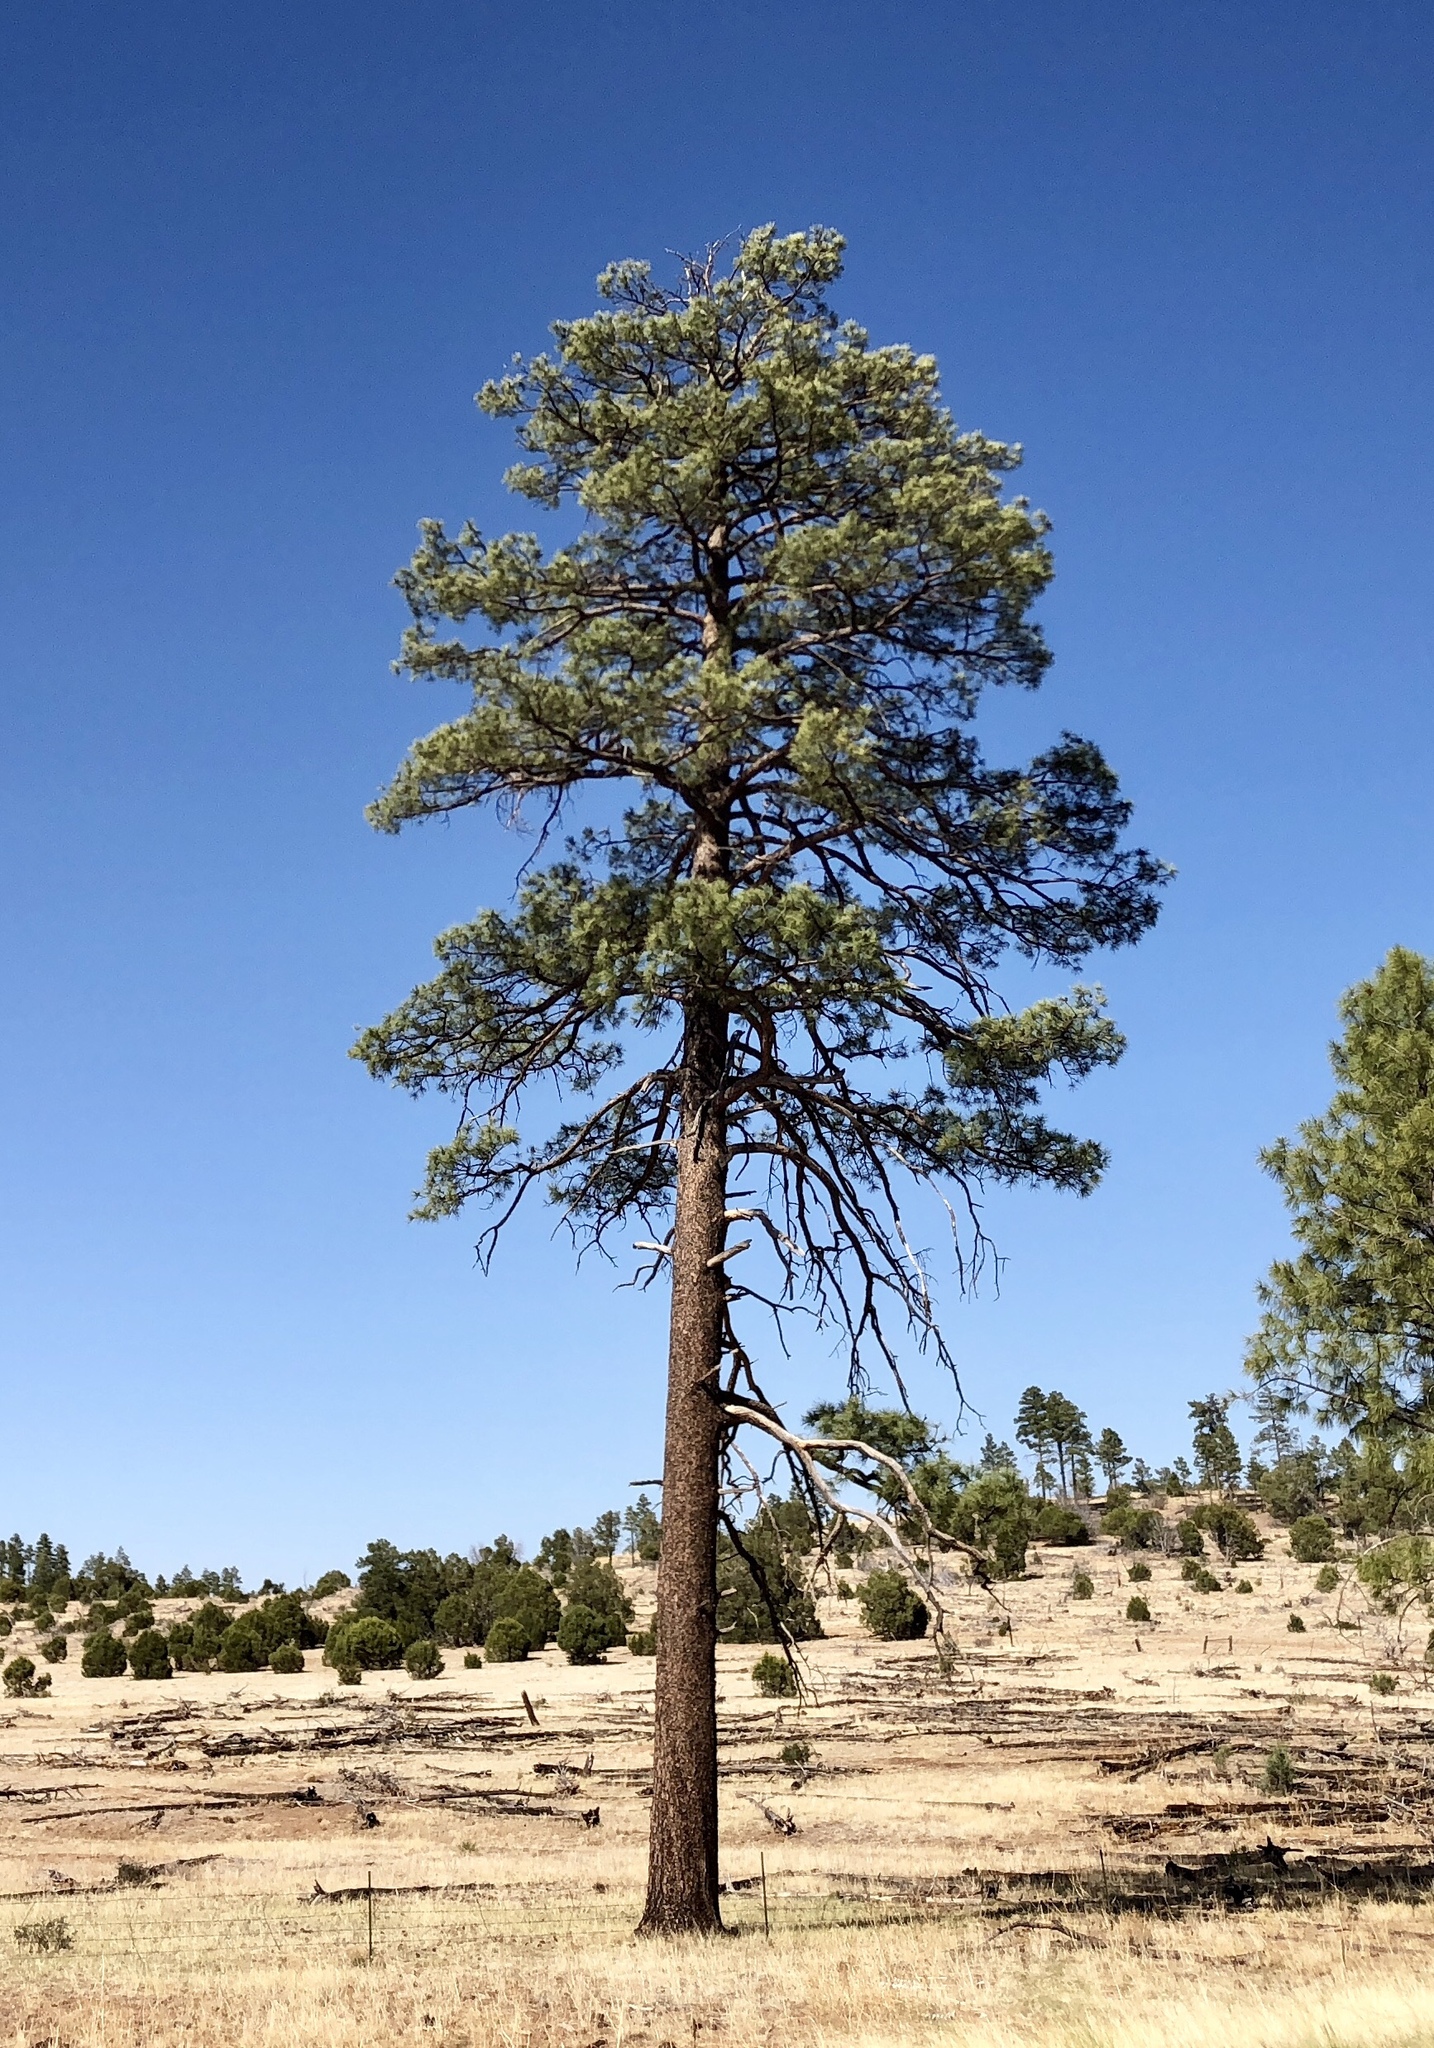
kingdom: Plantae
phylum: Tracheophyta
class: Pinopsida
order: Pinales
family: Pinaceae
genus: Pinus
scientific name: Pinus ponderosa
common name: Western yellow-pine
